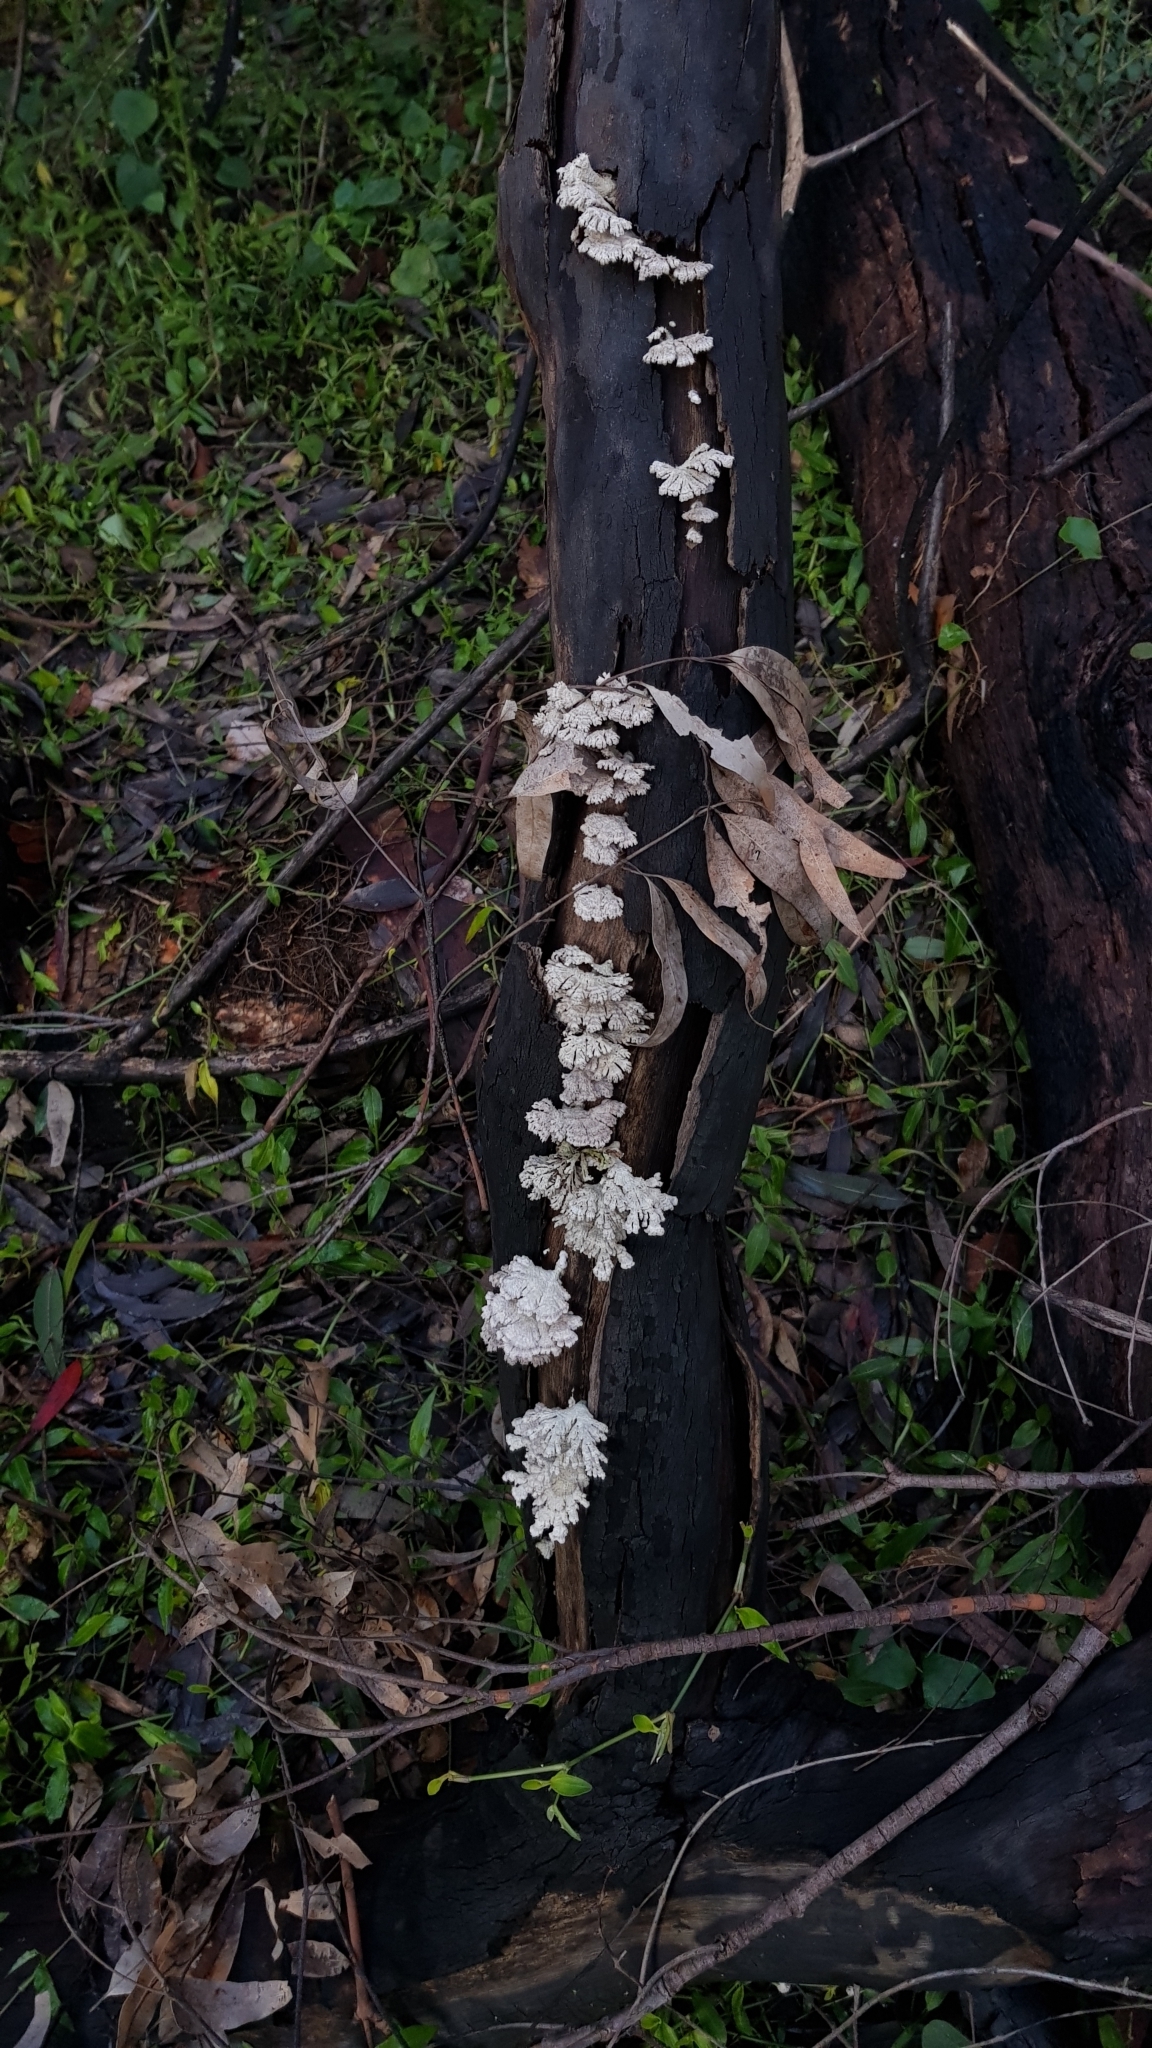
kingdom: Fungi
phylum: Basidiomycota
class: Agaricomycetes
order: Agaricales
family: Schizophyllaceae
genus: Schizophyllum
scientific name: Schizophyllum commune
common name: Common porecrust
